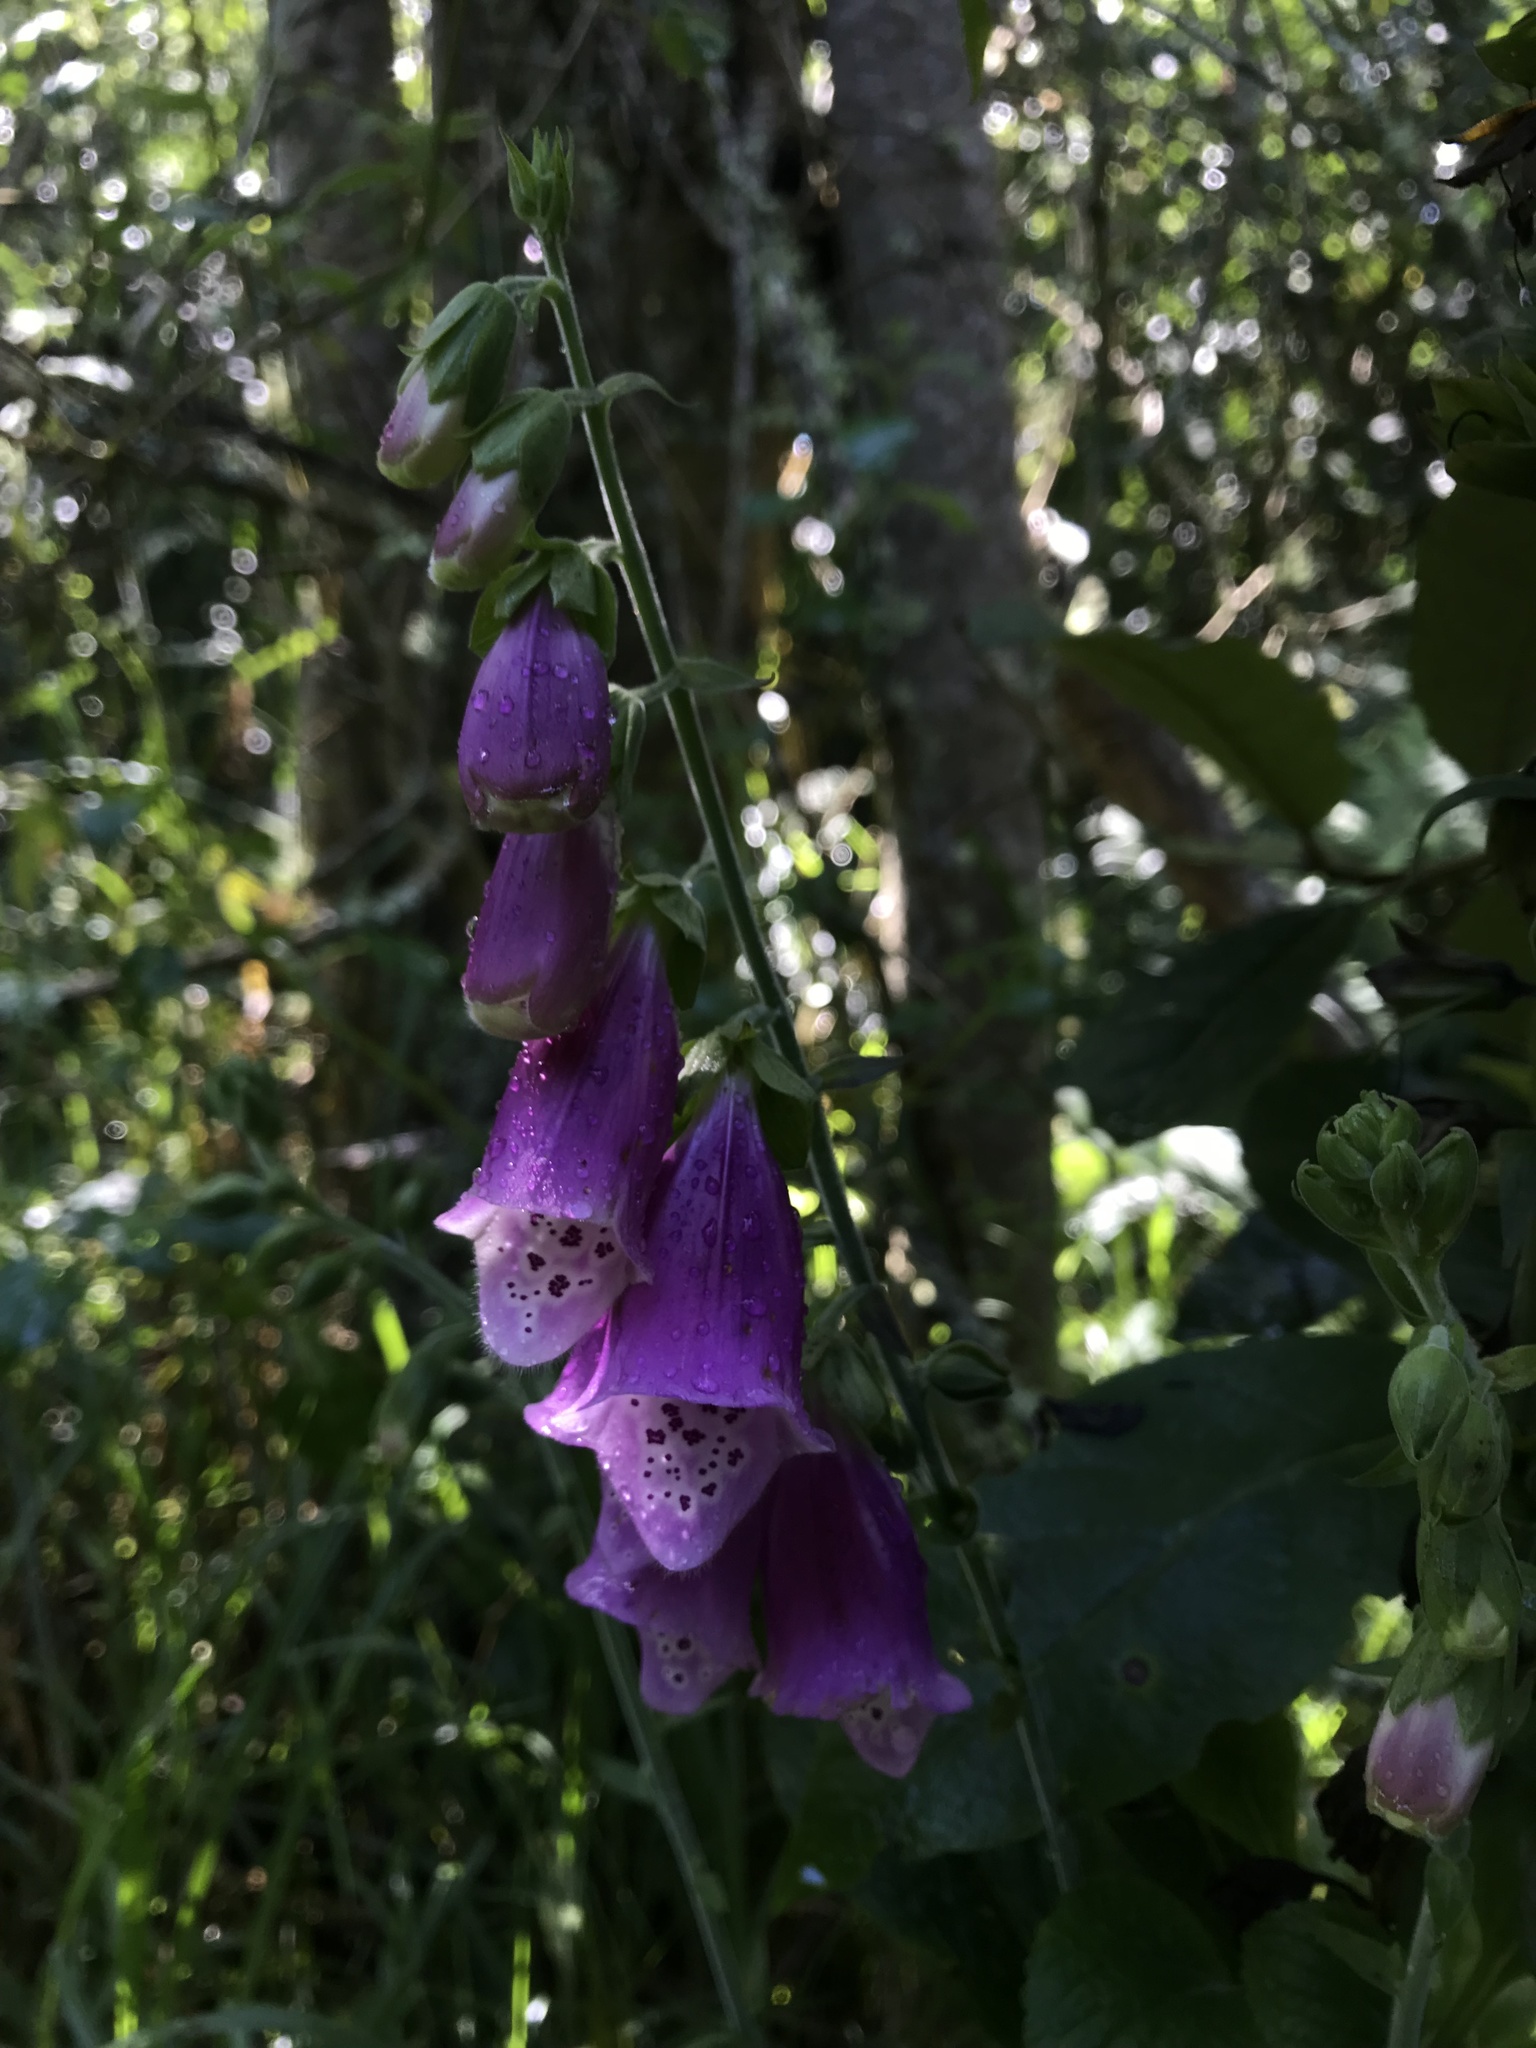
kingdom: Plantae
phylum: Tracheophyta
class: Magnoliopsida
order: Lamiales
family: Plantaginaceae
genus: Digitalis
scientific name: Digitalis purpurea
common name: Foxglove
